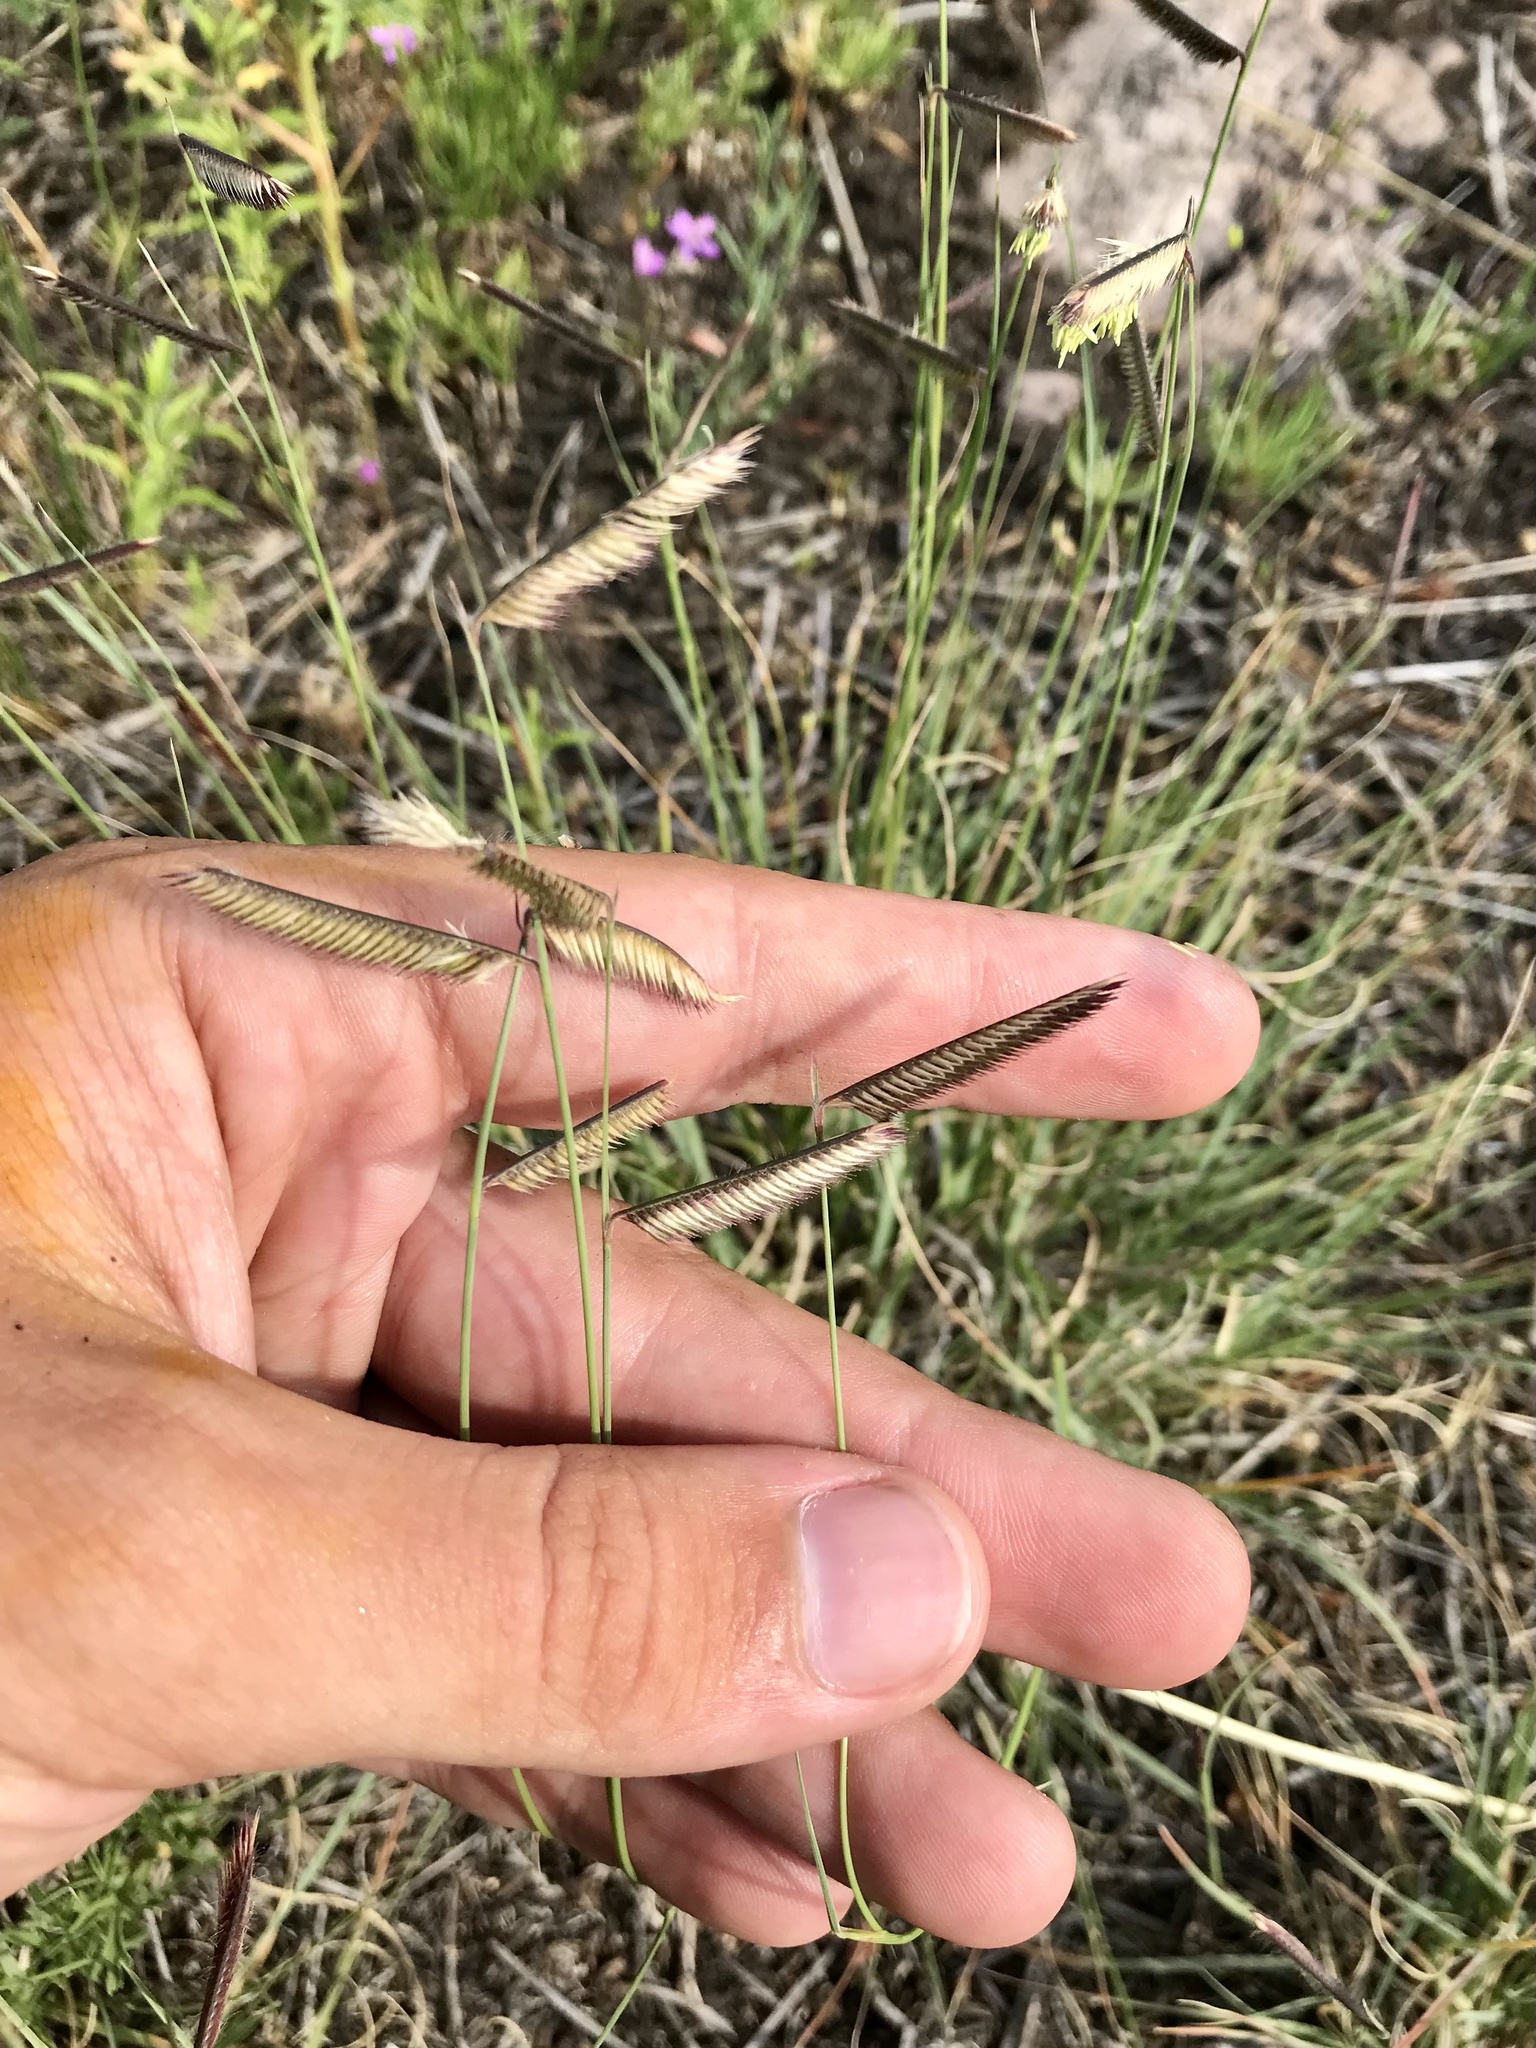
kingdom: Plantae
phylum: Tracheophyta
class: Liliopsida
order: Poales
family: Poaceae
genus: Bouteloua
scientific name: Bouteloua gracilis
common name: Blue grama
